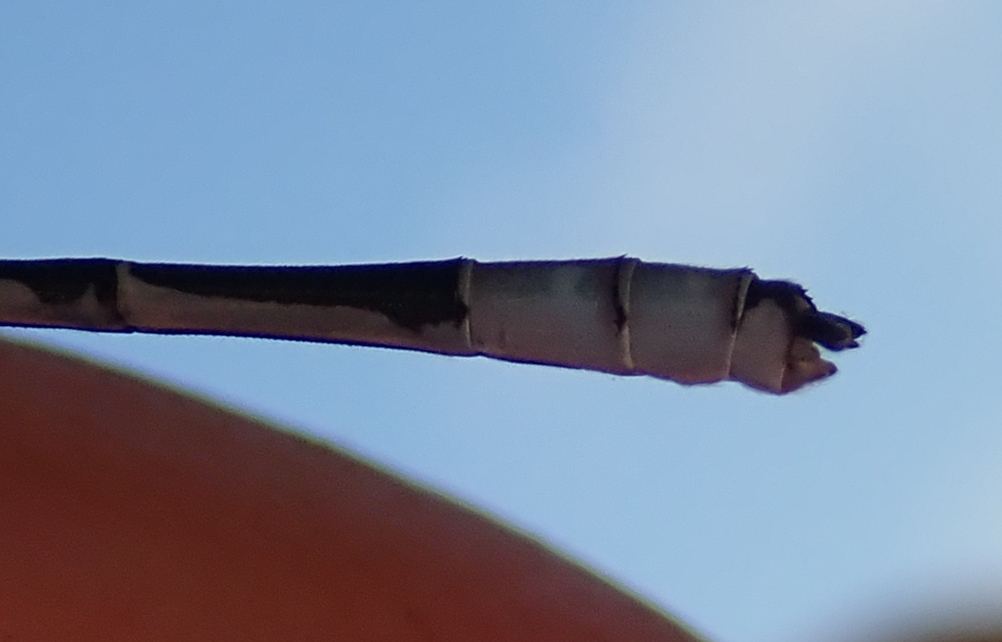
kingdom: Animalia
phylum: Arthropoda
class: Insecta
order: Odonata
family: Coenagrionidae
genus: Pseudagrion
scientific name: Pseudagrion coeleste
